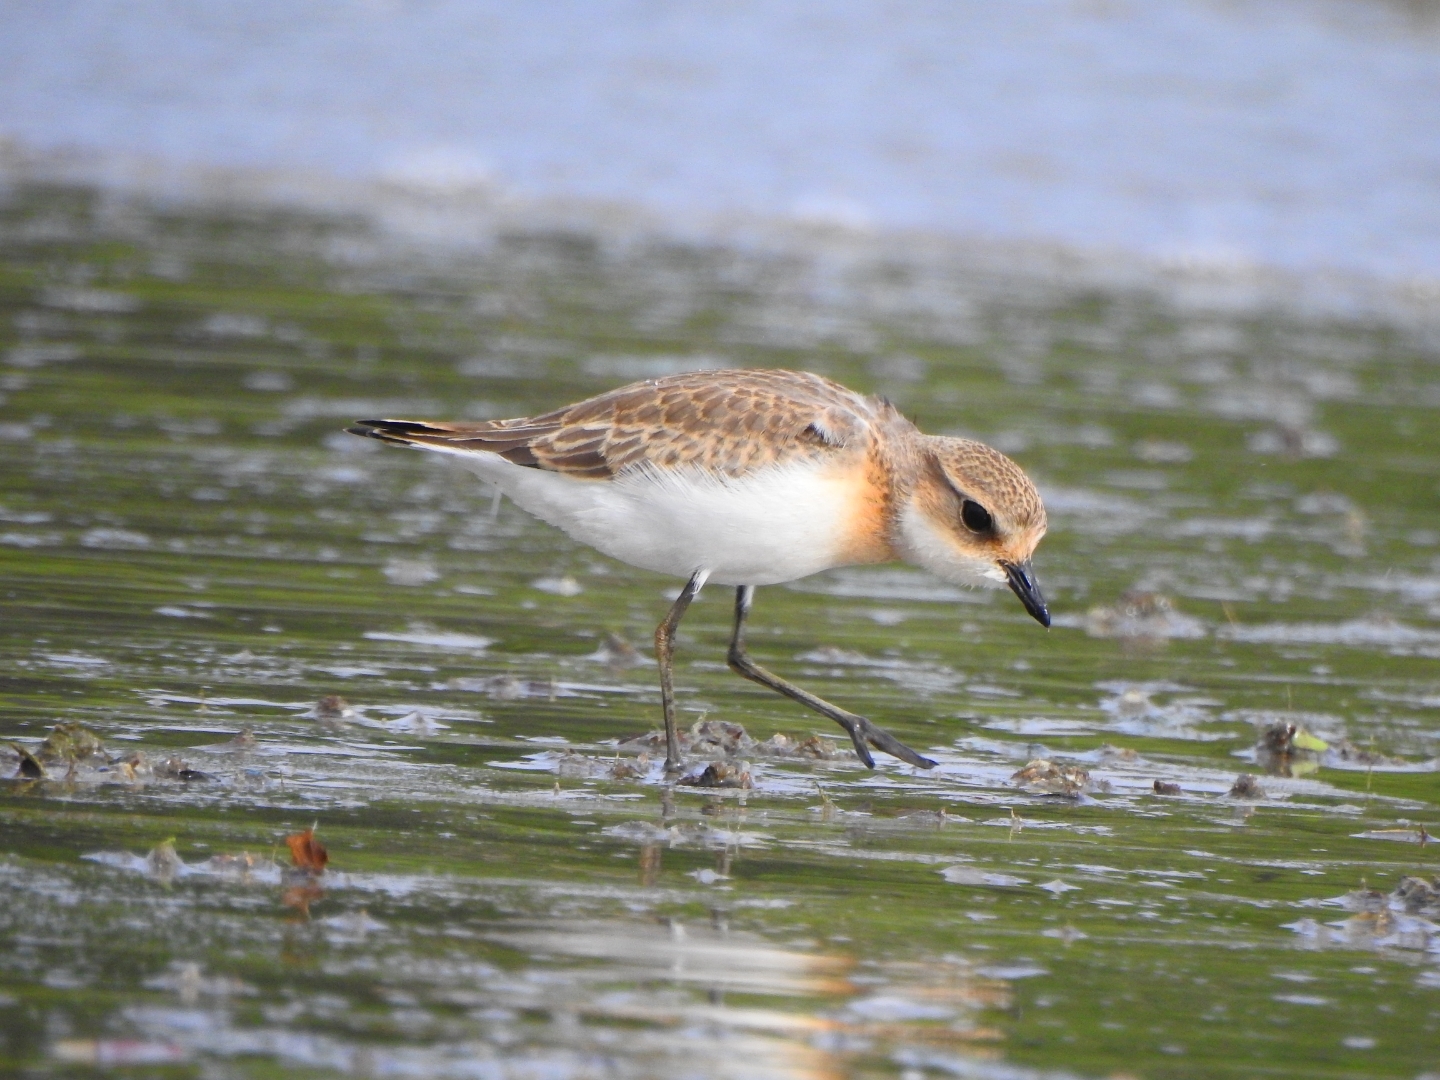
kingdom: Animalia
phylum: Chordata
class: Aves
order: Charadriiformes
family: Charadriidae
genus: Anarhynchus
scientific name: Anarhynchus
